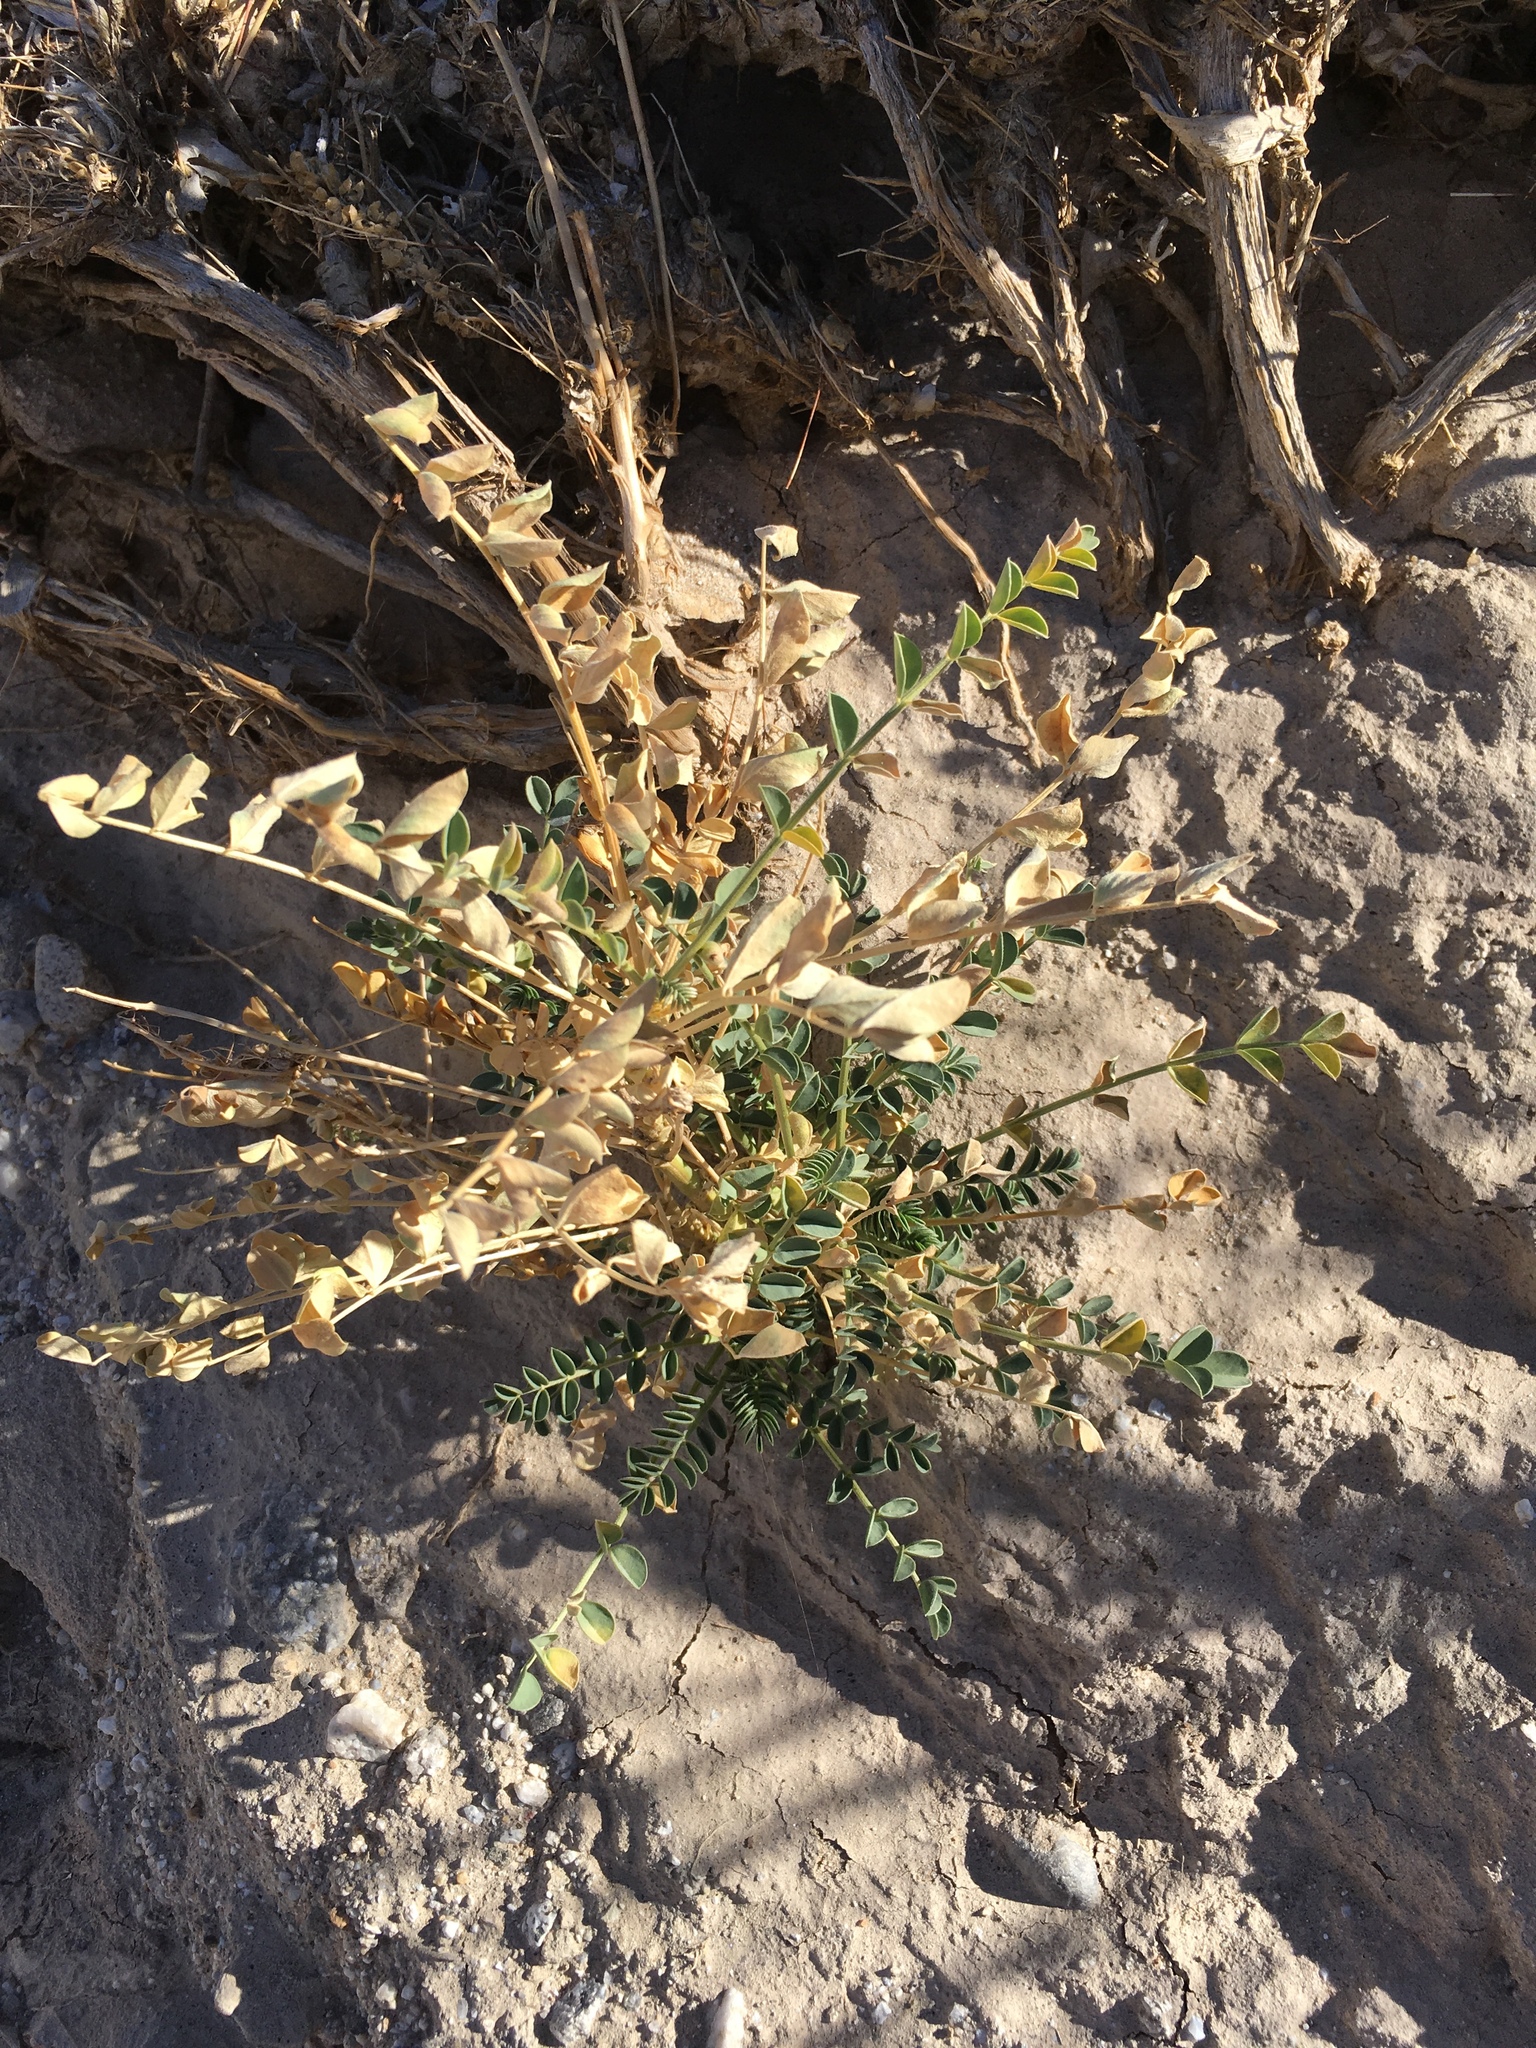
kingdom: Plantae
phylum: Tracheophyta
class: Magnoliopsida
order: Fabales
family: Fabaceae
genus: Astragalus
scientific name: Astragalus crotalariae
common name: Salton milkvetch
